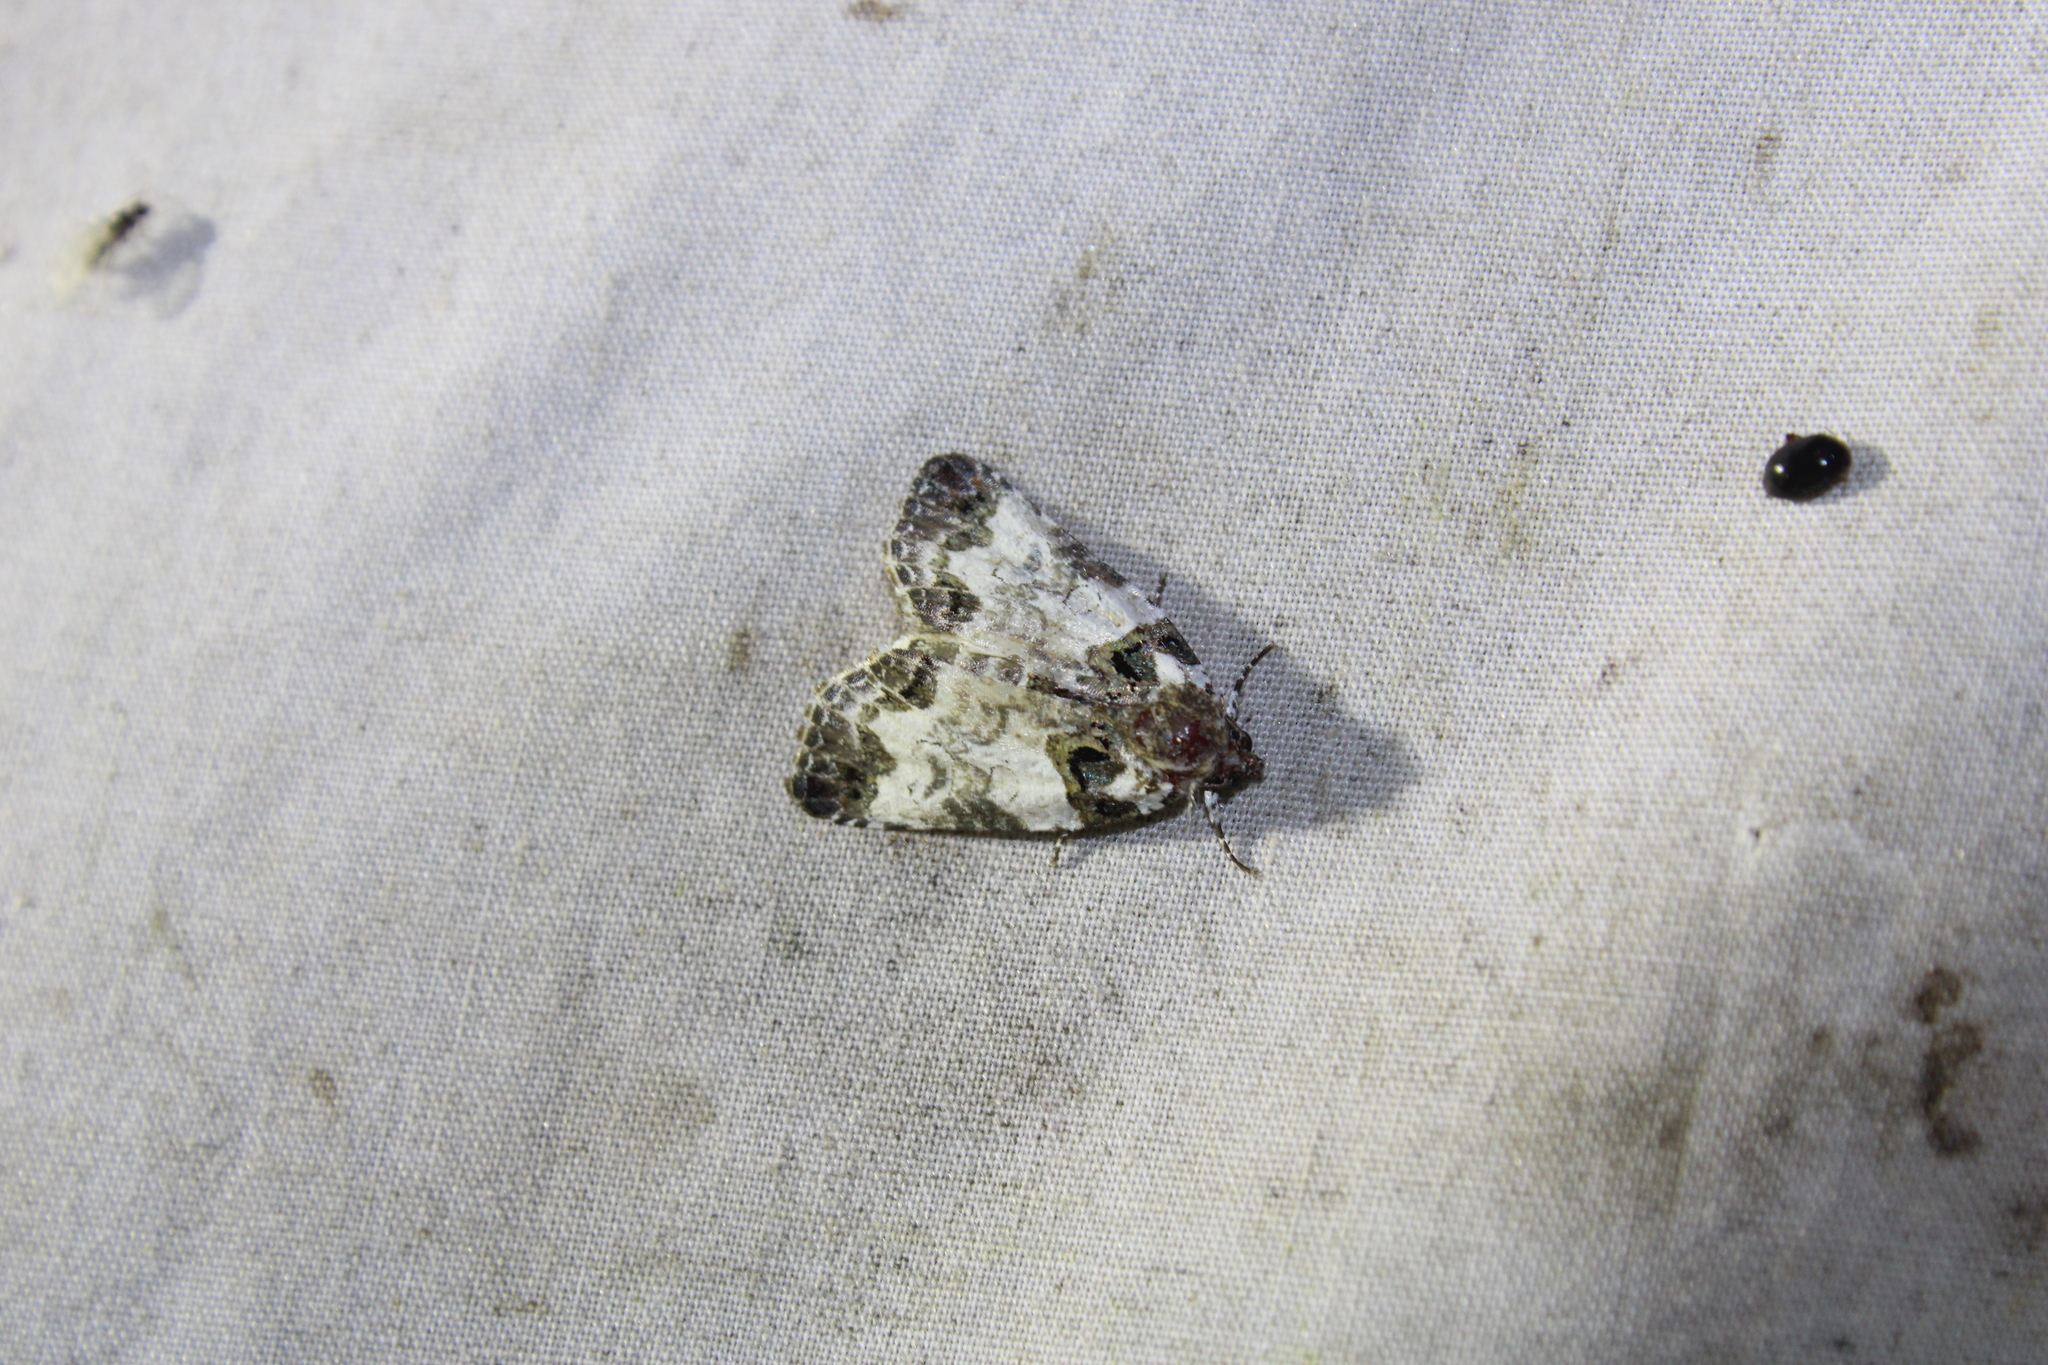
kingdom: Animalia
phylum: Arthropoda
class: Insecta
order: Lepidoptera
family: Noctuidae
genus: Cerma
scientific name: Cerma cerintha
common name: Tufted bird-dropping moth
